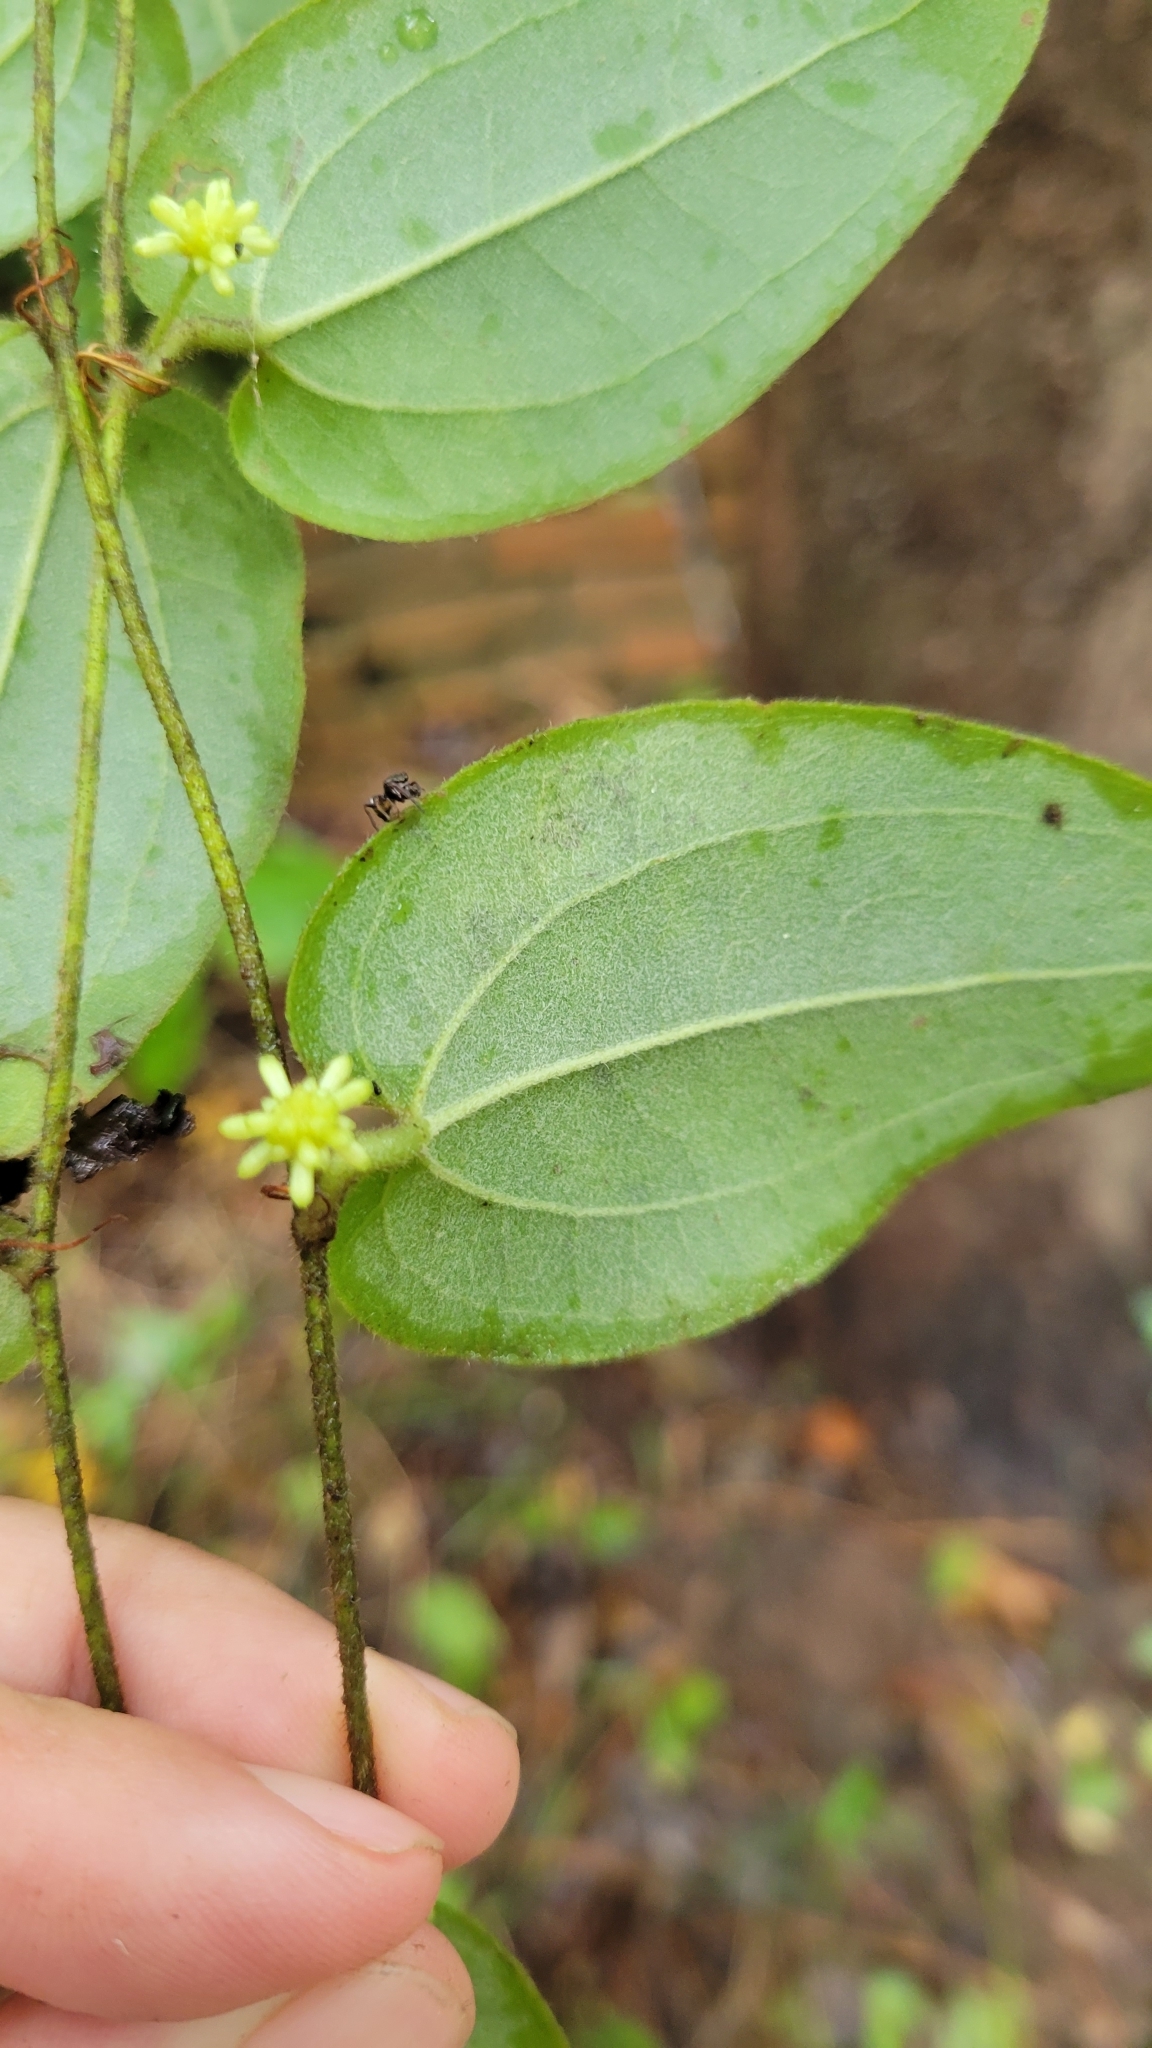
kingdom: Plantae
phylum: Tracheophyta
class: Liliopsida
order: Liliales
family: Smilacaceae
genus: Smilax
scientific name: Smilax pumila
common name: Sarsaparilla-vine
